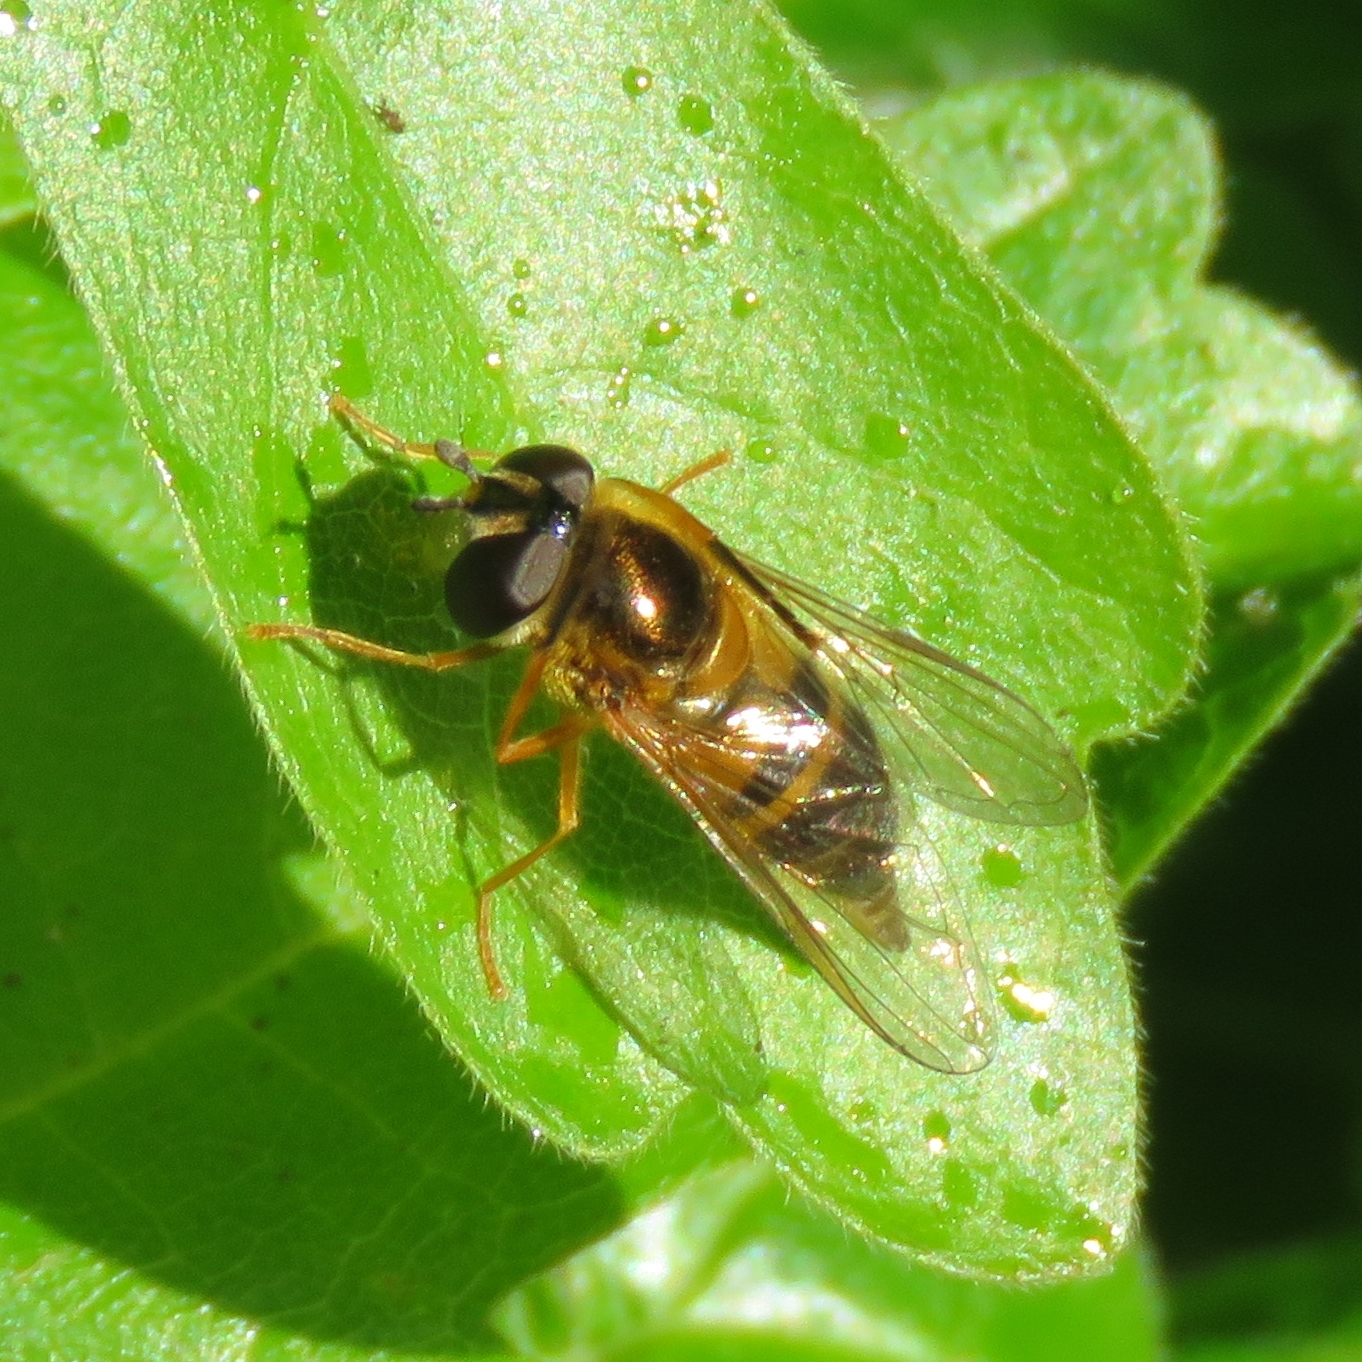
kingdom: Animalia
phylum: Arthropoda
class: Insecta
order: Diptera
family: Syrphidae
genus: Epistrophe
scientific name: Epistrophe eligans
